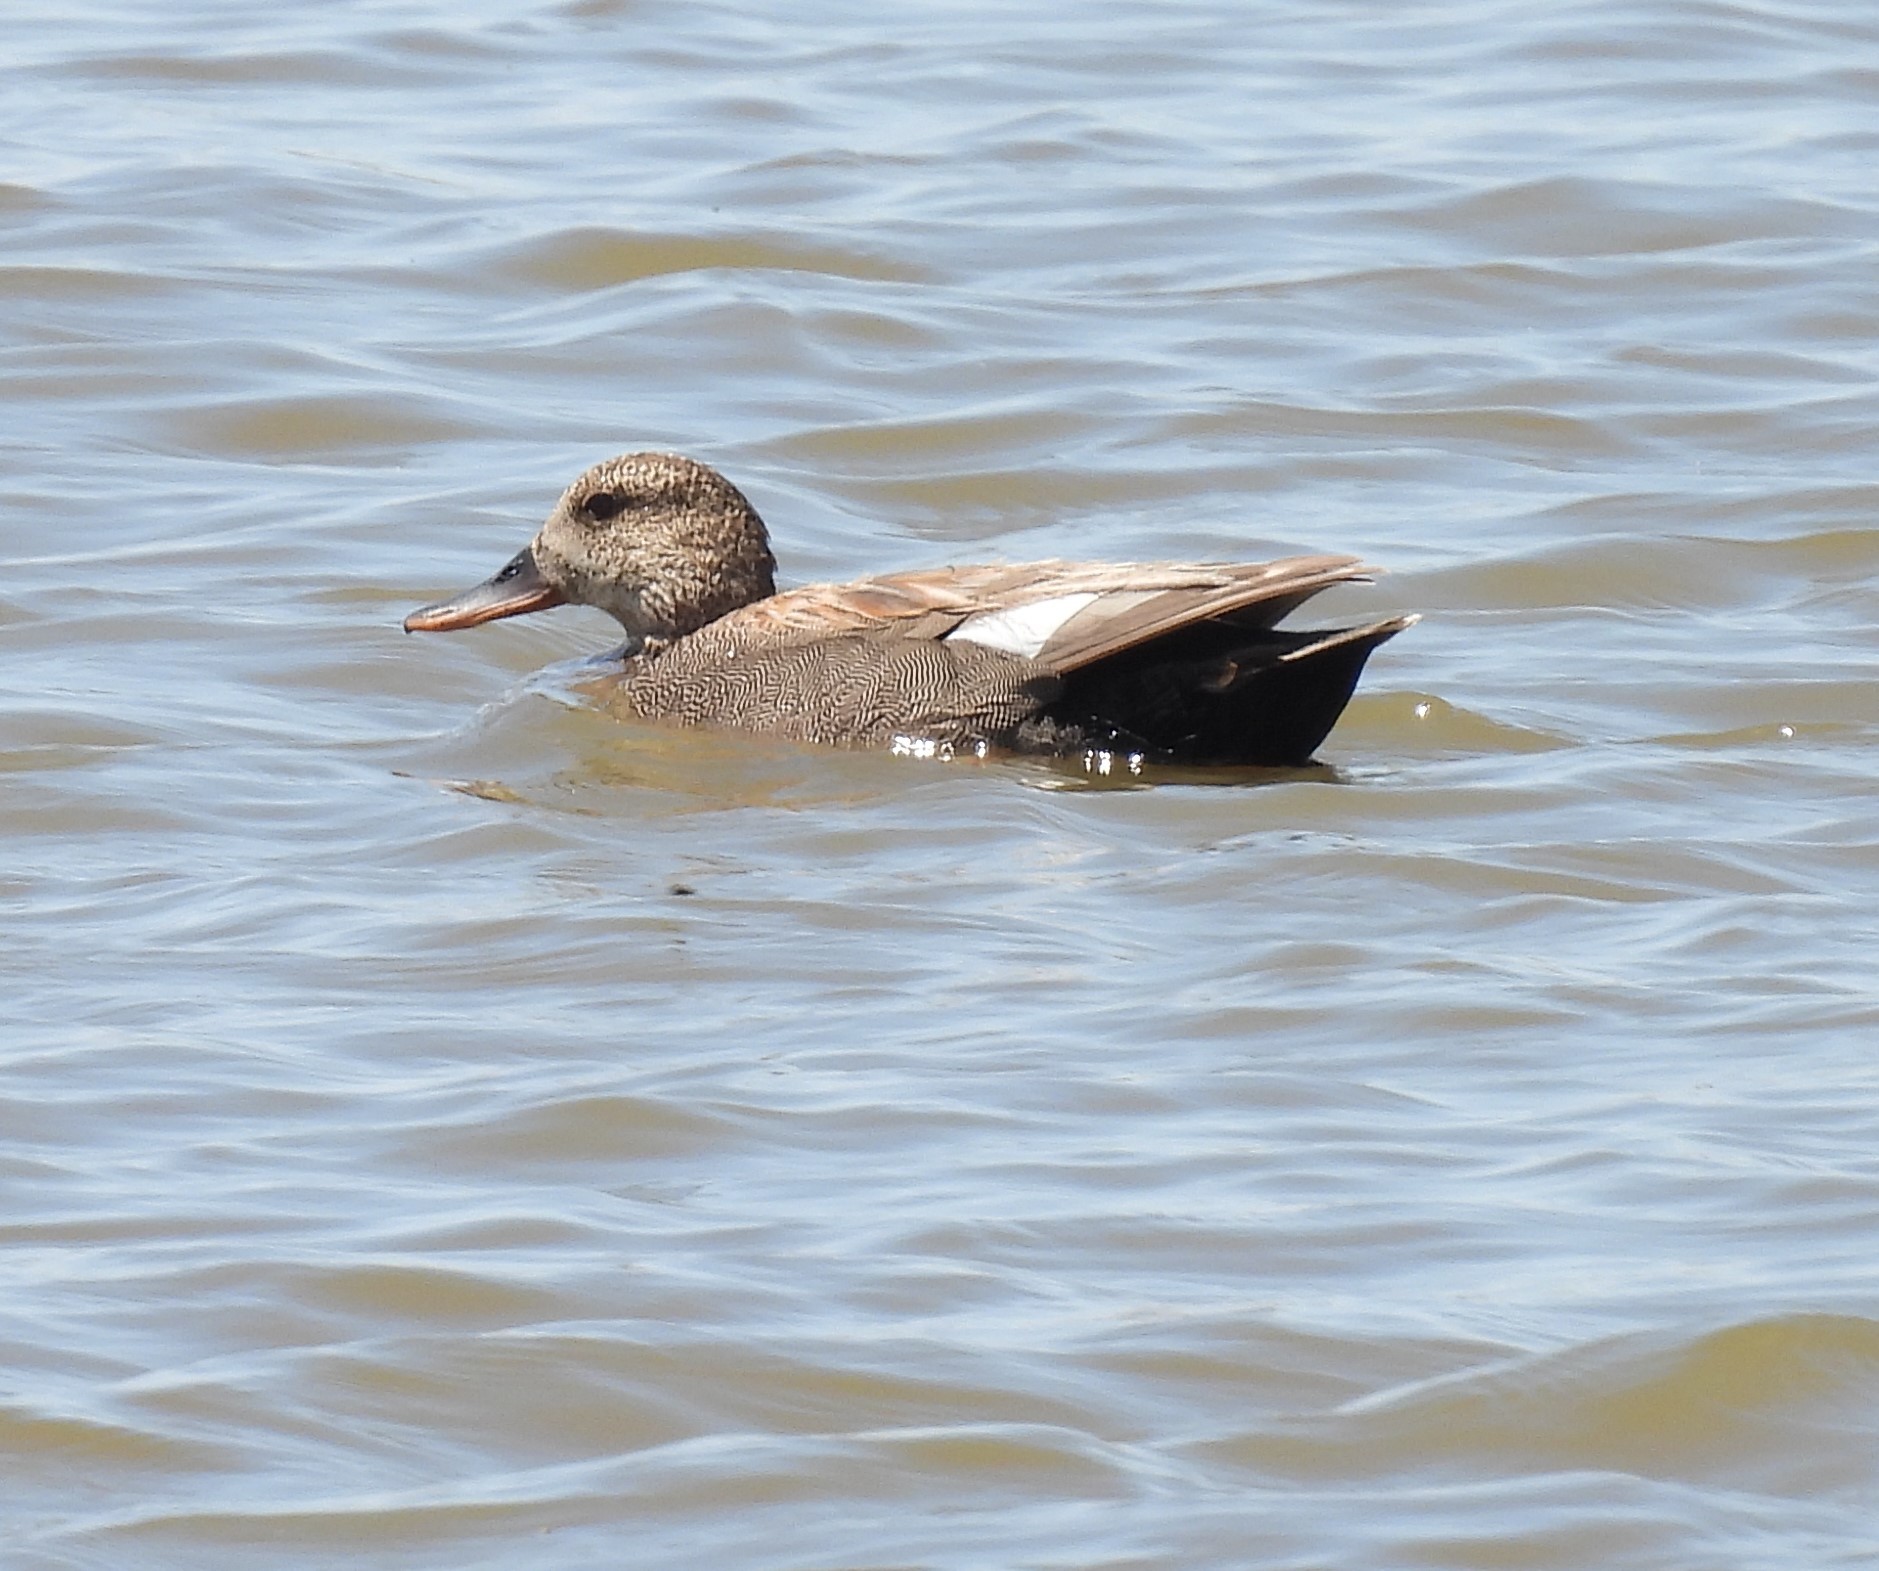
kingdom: Animalia
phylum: Chordata
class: Aves
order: Anseriformes
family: Anatidae
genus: Mareca
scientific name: Mareca strepera
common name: Gadwall
